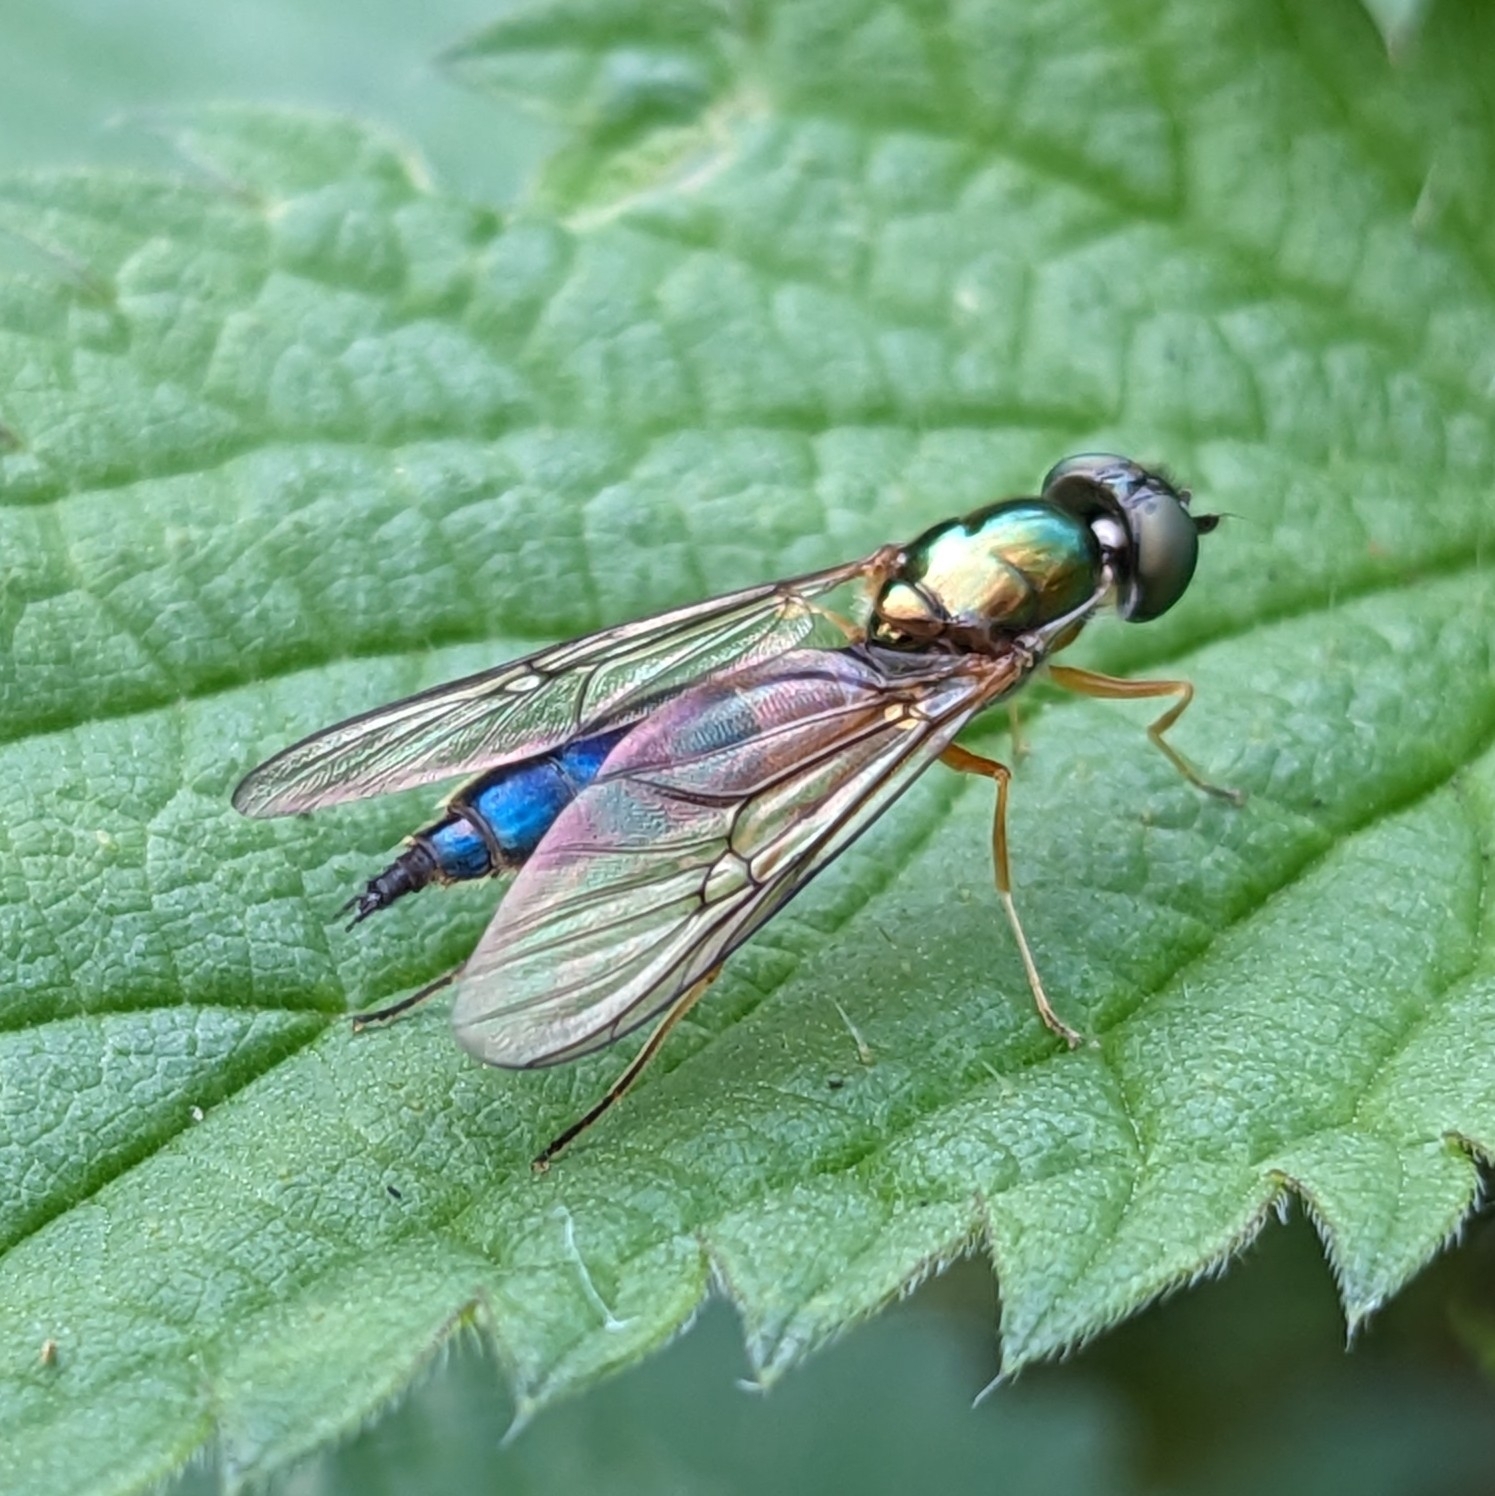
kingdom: Animalia
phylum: Arthropoda
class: Insecta
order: Diptera
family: Stratiomyidae
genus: Sargus
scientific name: Sargus bipunctatus
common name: Twin-spot centurion
